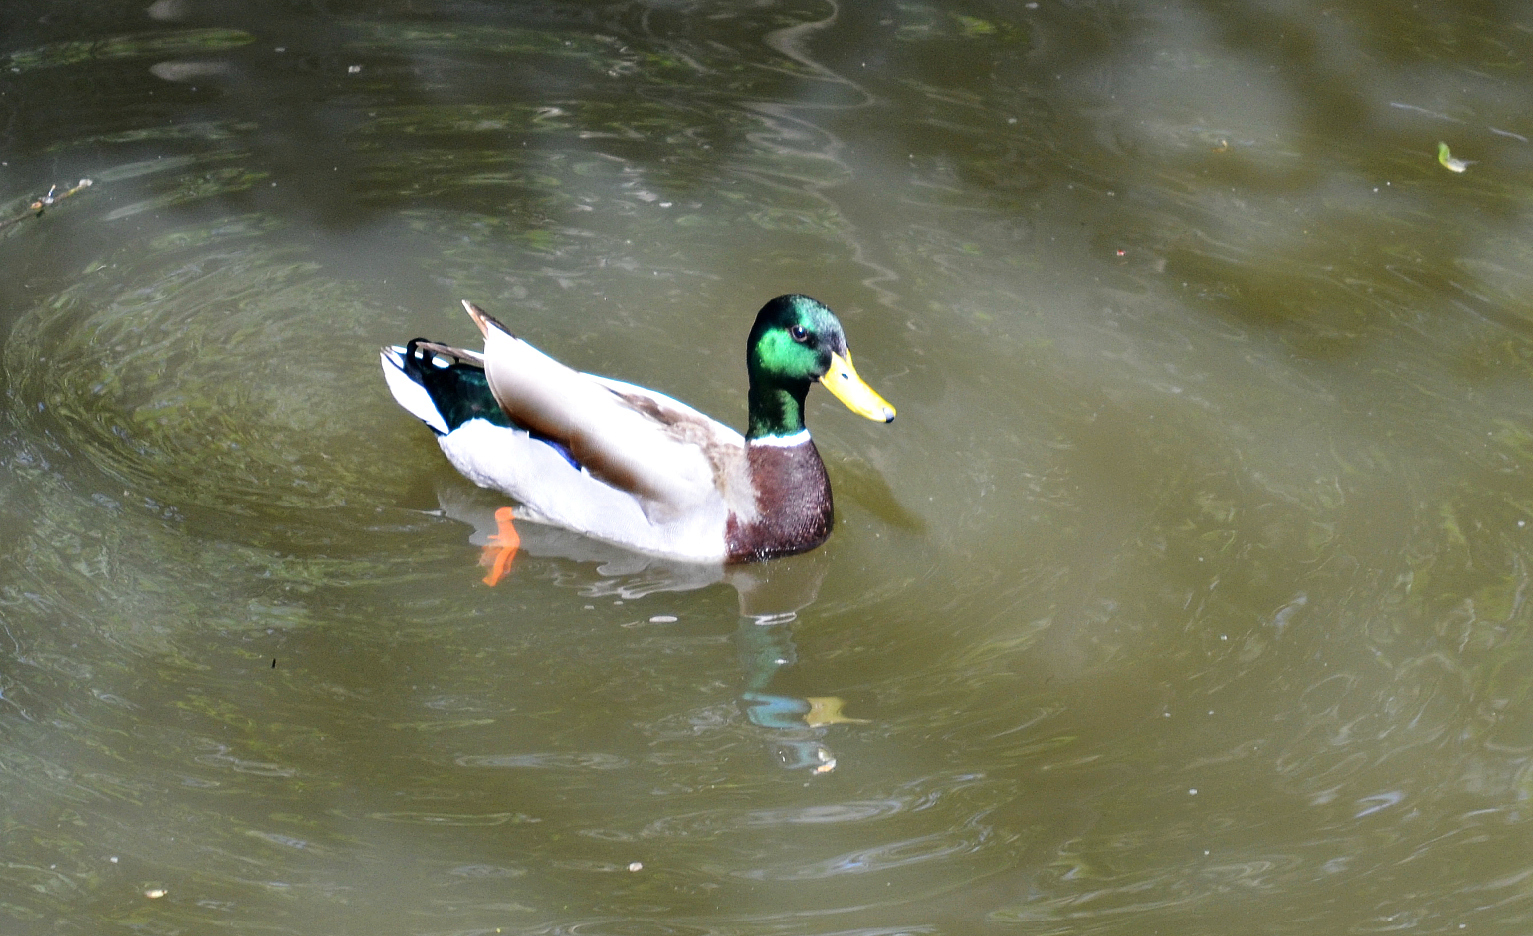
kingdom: Animalia
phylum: Chordata
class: Aves
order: Anseriformes
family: Anatidae
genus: Anas
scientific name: Anas platyrhynchos
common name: Mallard
